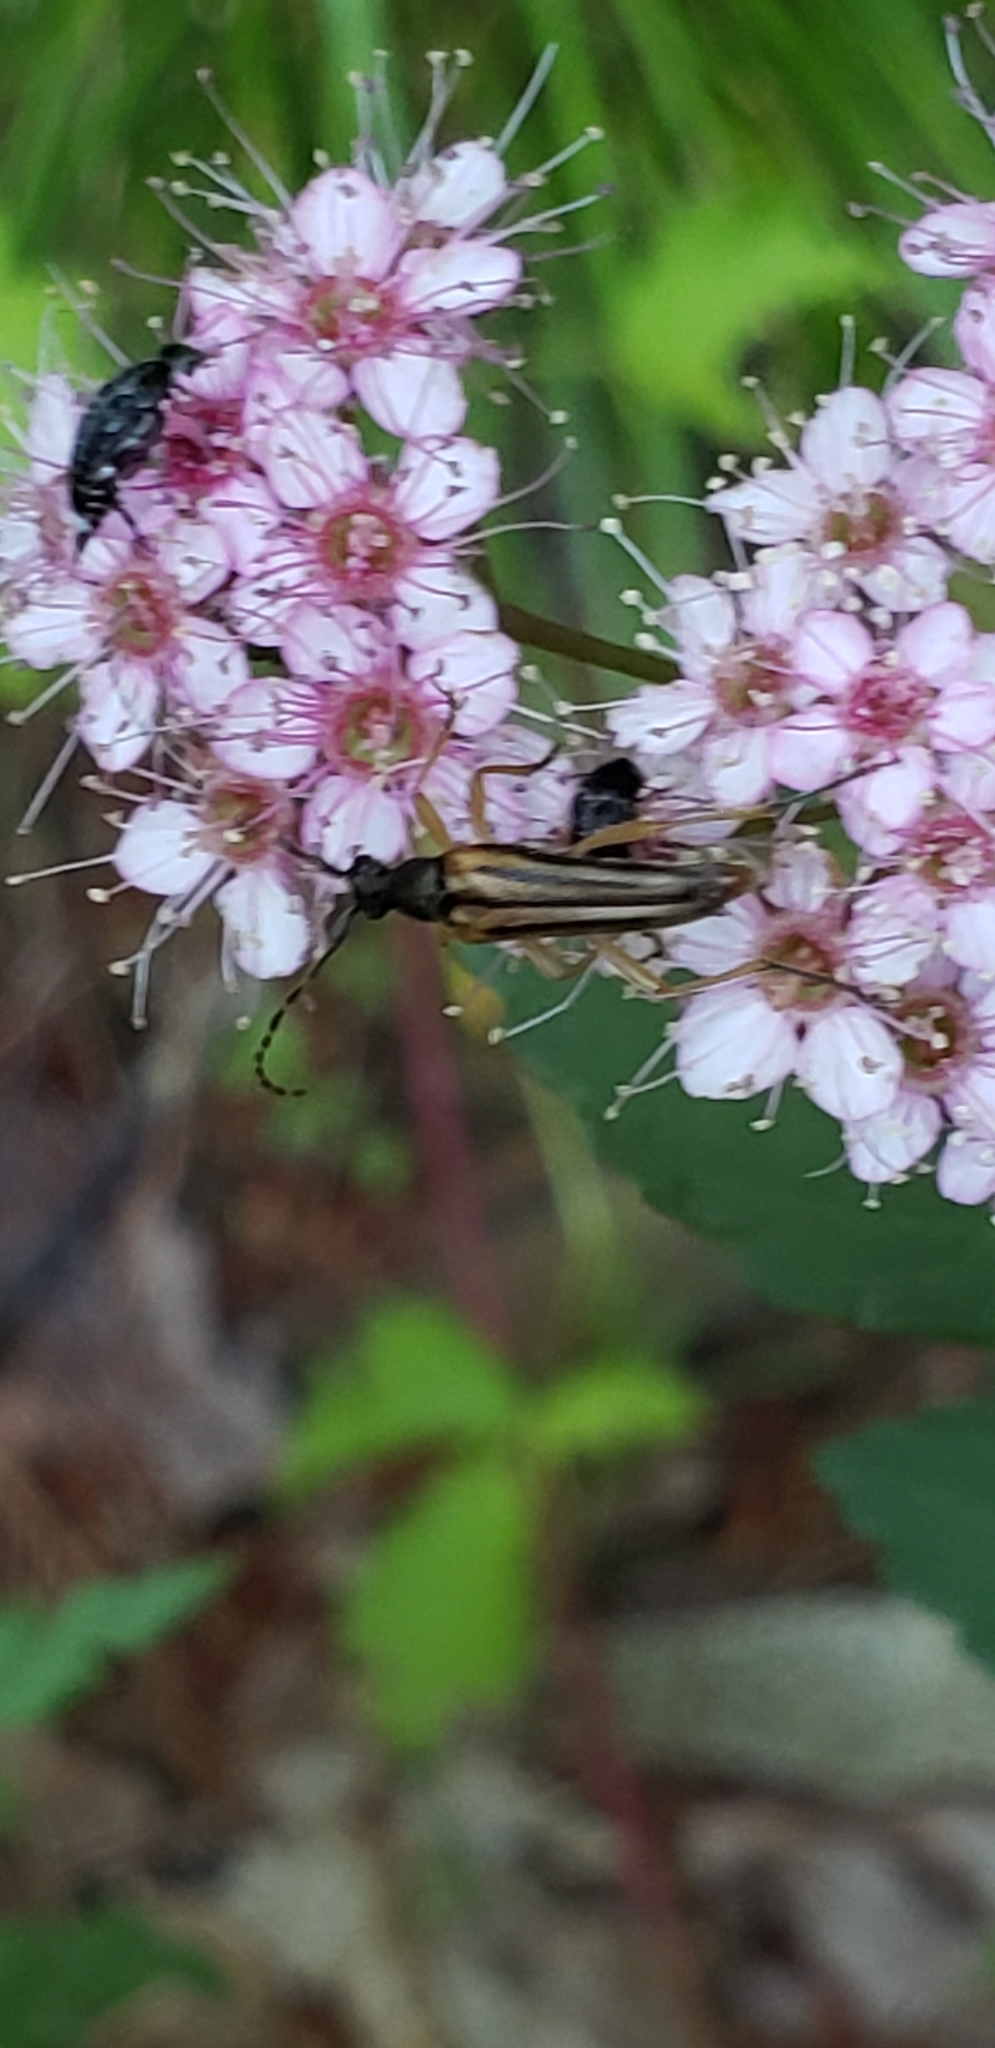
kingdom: Animalia
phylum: Arthropoda
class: Insecta
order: Coleoptera
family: Cerambycidae
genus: Analeptura
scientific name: Analeptura lineola
